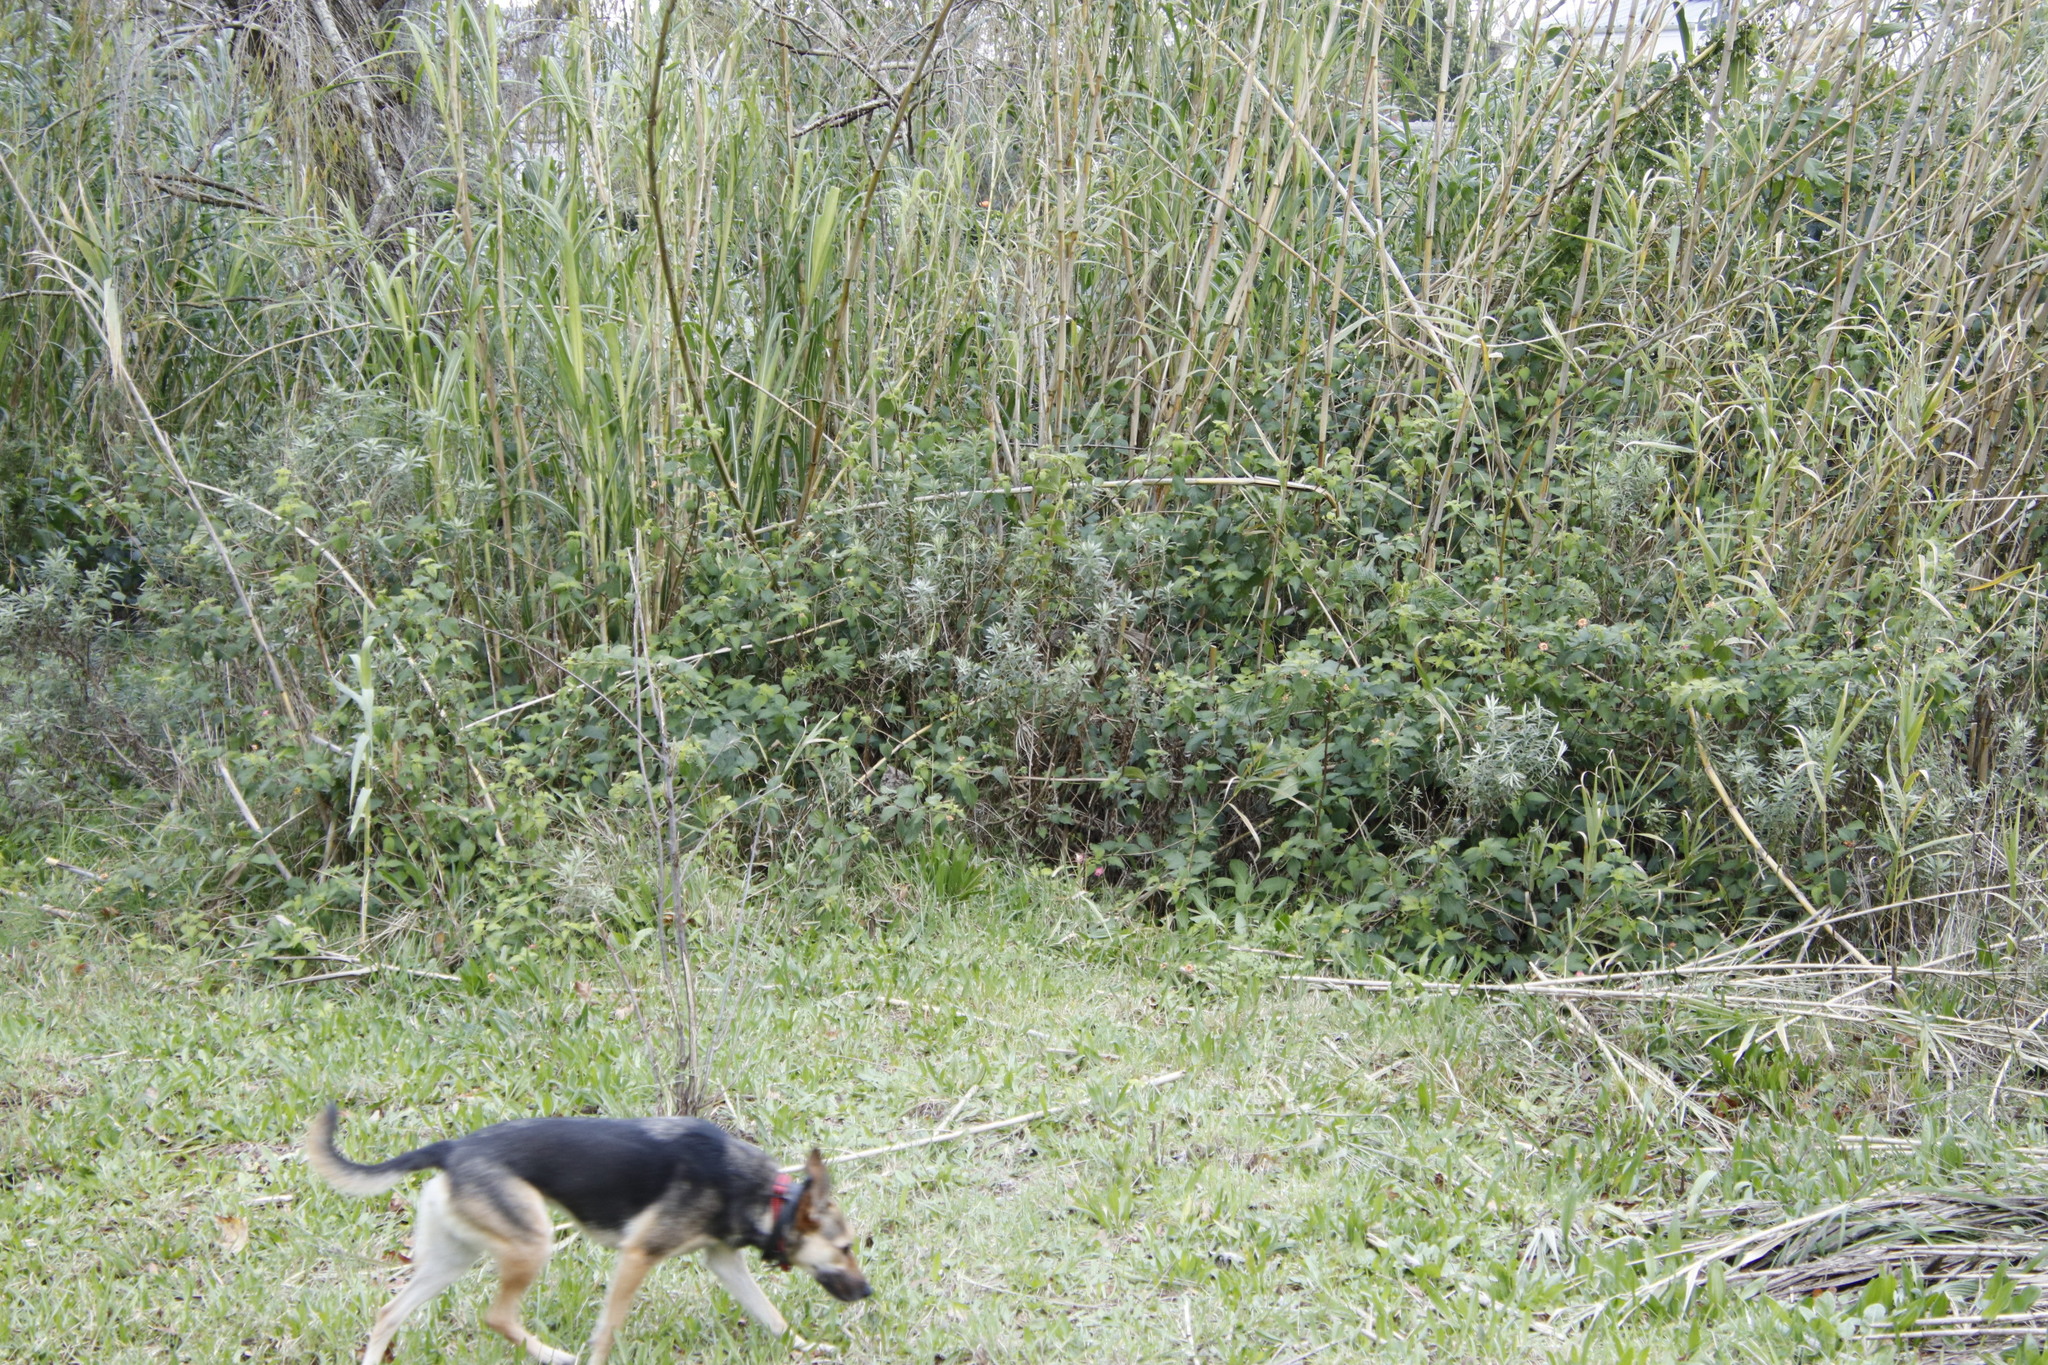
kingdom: Plantae
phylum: Tracheophyta
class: Magnoliopsida
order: Lamiales
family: Verbenaceae
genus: Lantana
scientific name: Lantana camara
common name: Lantana
